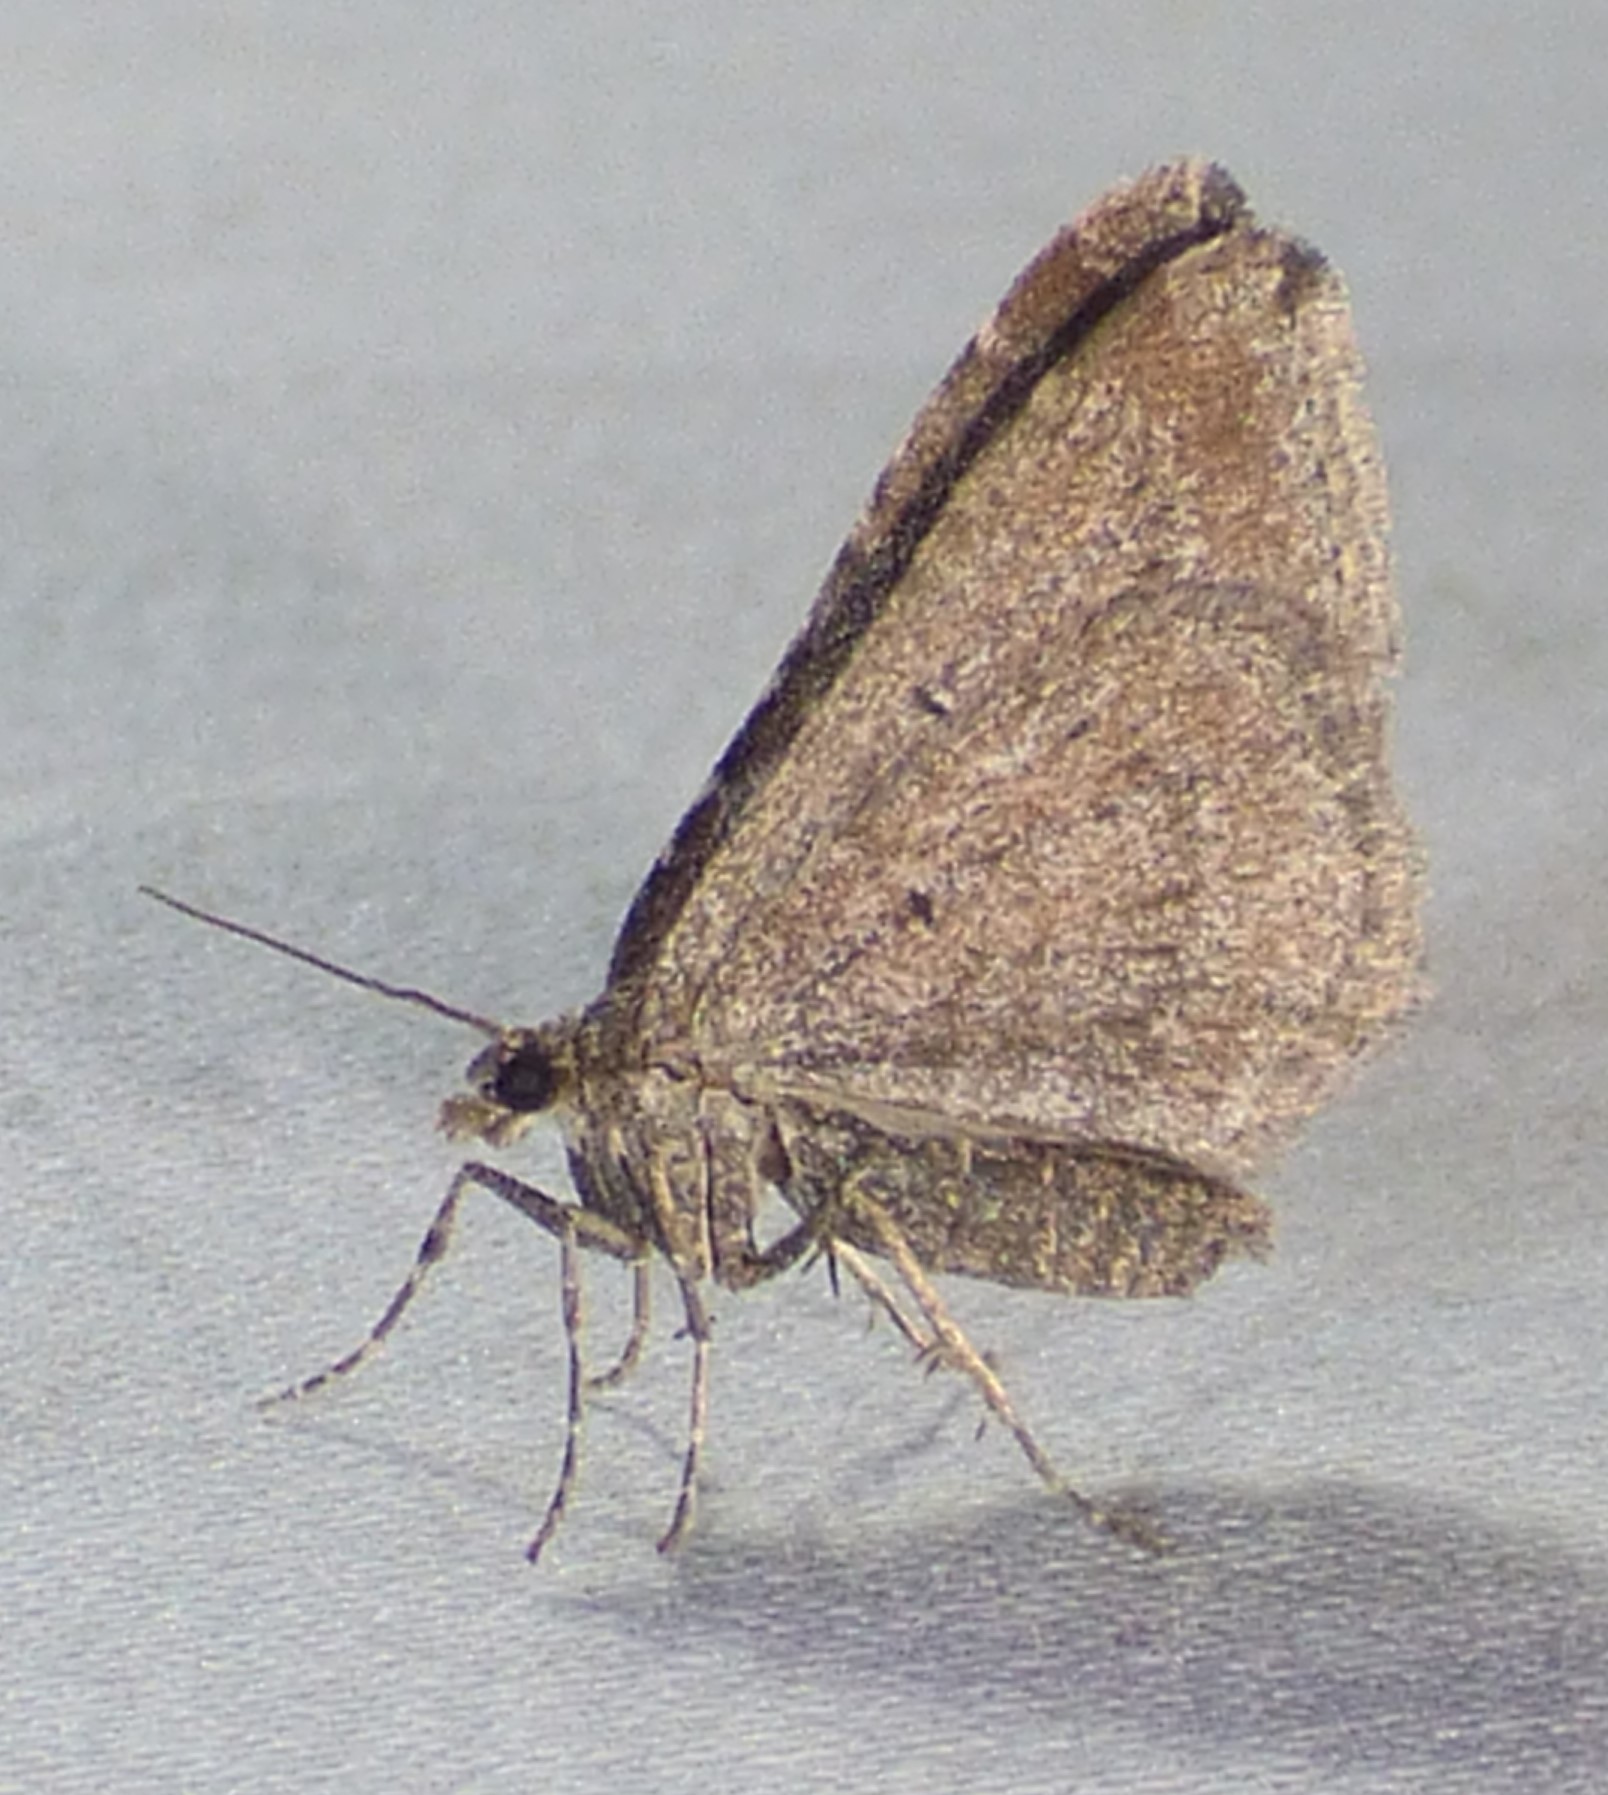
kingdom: Animalia
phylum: Arthropoda
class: Insecta
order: Lepidoptera
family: Geometridae
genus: Orthonama
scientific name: Orthonama obstipata
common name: The gem
